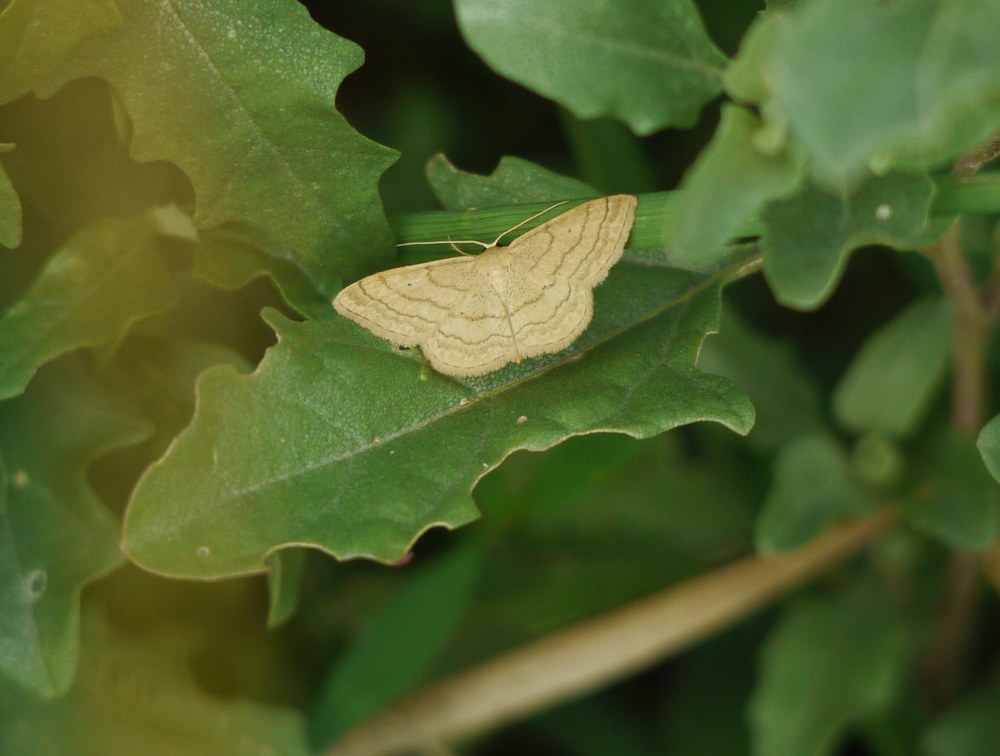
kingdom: Animalia
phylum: Arthropoda
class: Insecta
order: Lepidoptera
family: Geometridae
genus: Scopula
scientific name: Scopula rubiginata
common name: Tawny wave
